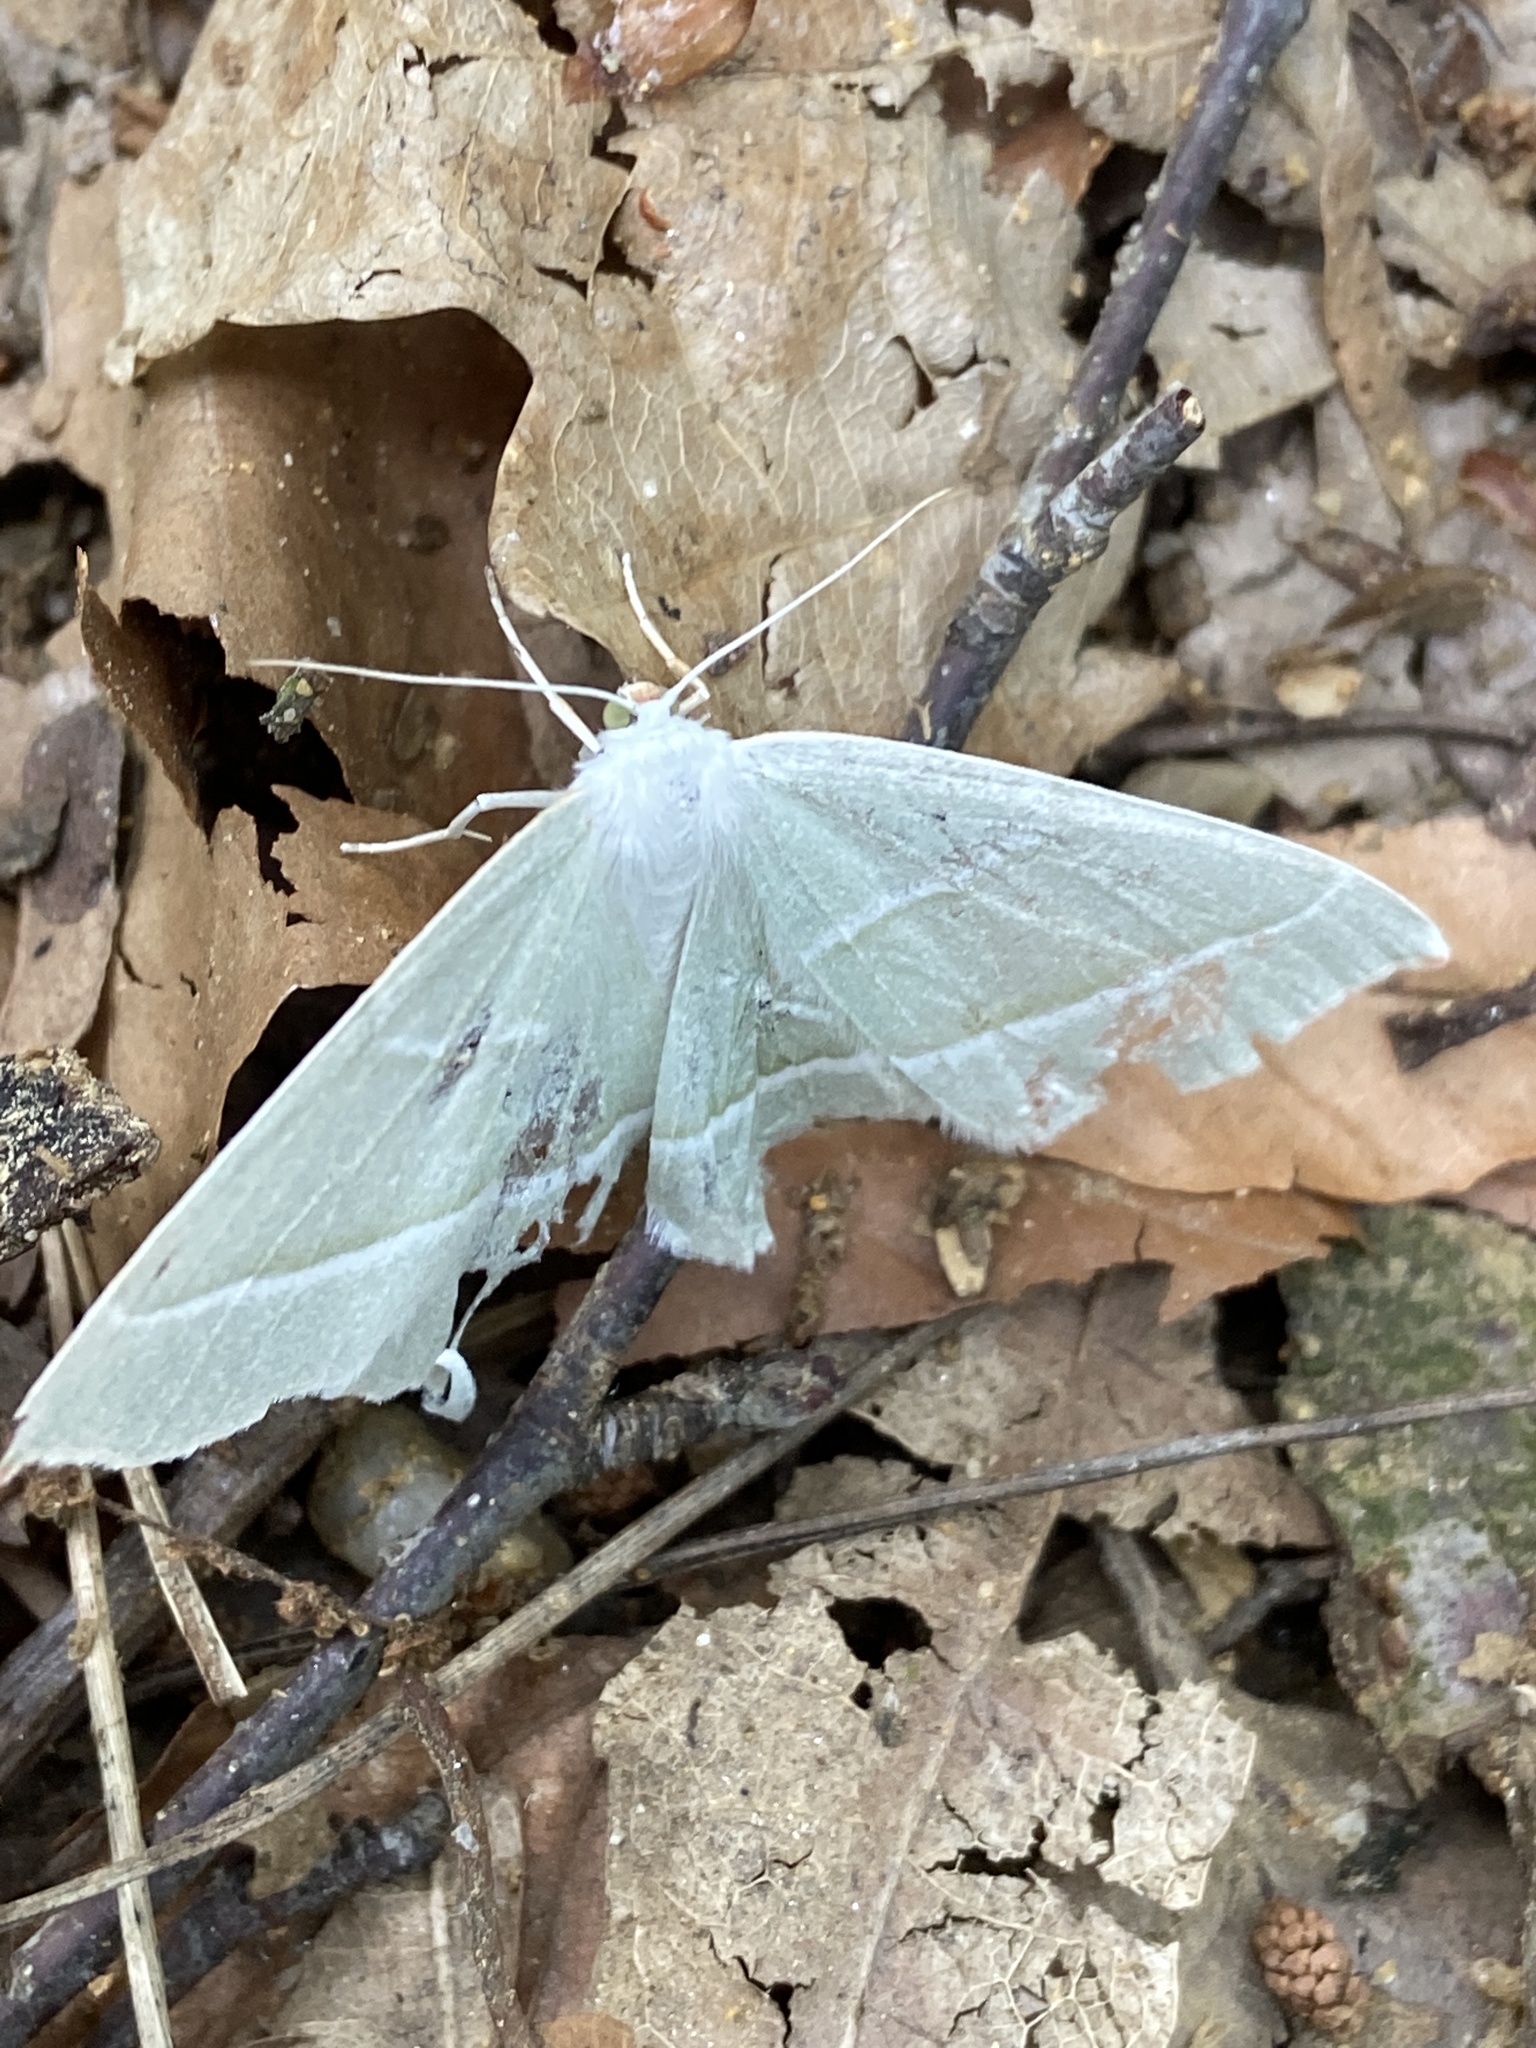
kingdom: Animalia
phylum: Arthropoda
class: Insecta
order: Lepidoptera
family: Geometridae
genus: Campaea
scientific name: Campaea margaritaria
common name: Light emerald
